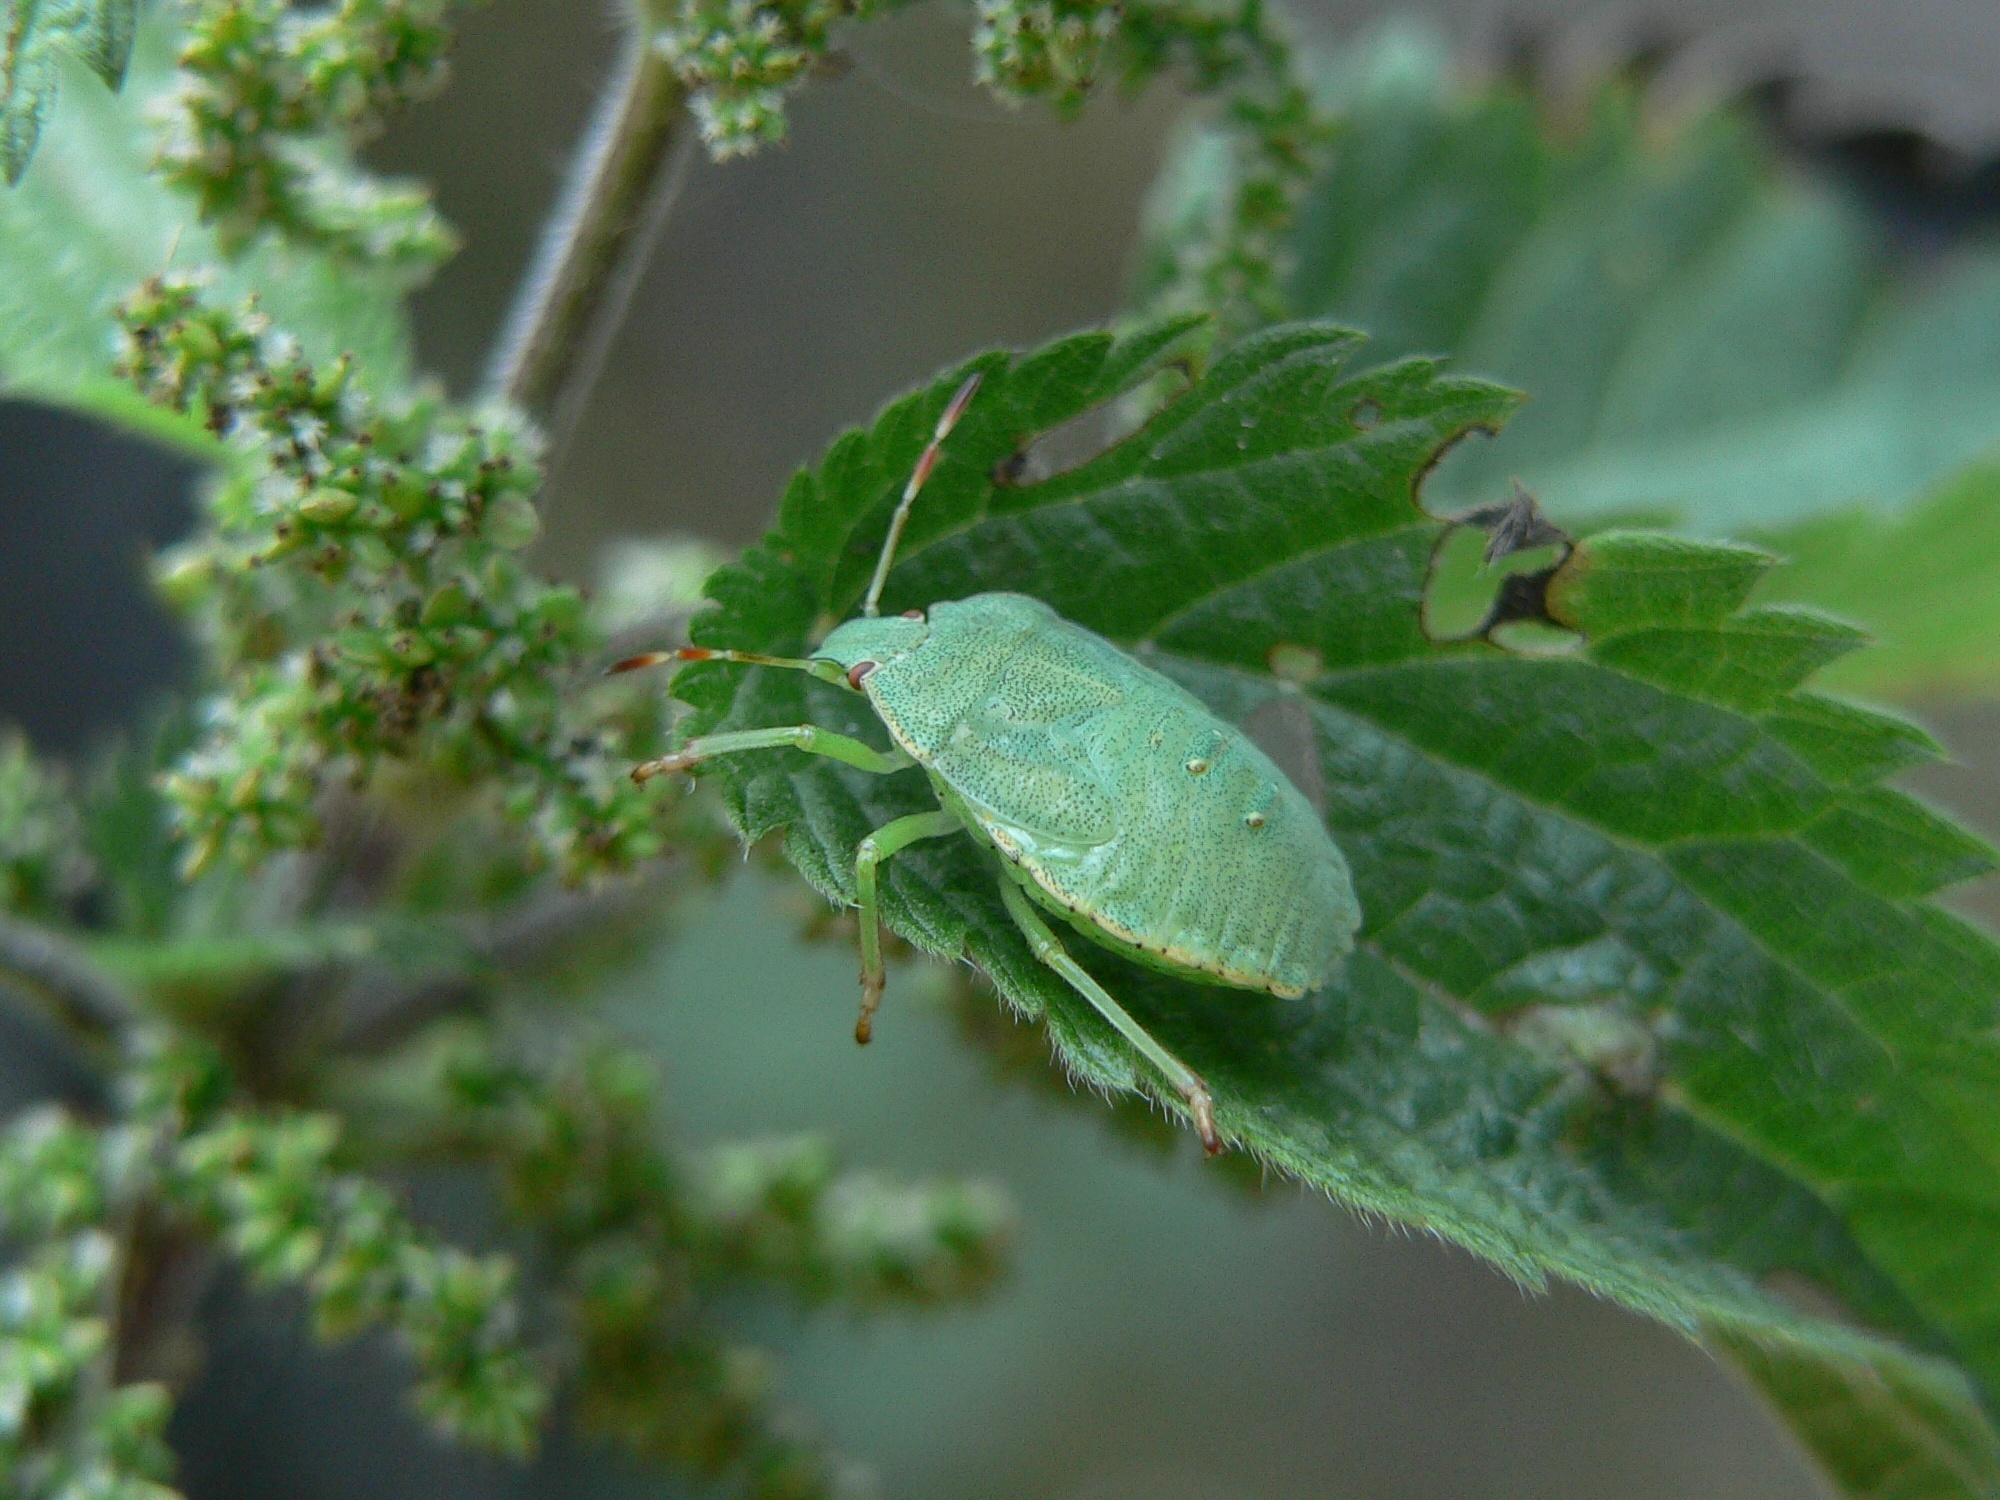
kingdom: Animalia
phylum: Arthropoda
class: Insecta
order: Hemiptera
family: Pentatomidae
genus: Palomena
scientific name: Palomena prasina
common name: Green shieldbug
